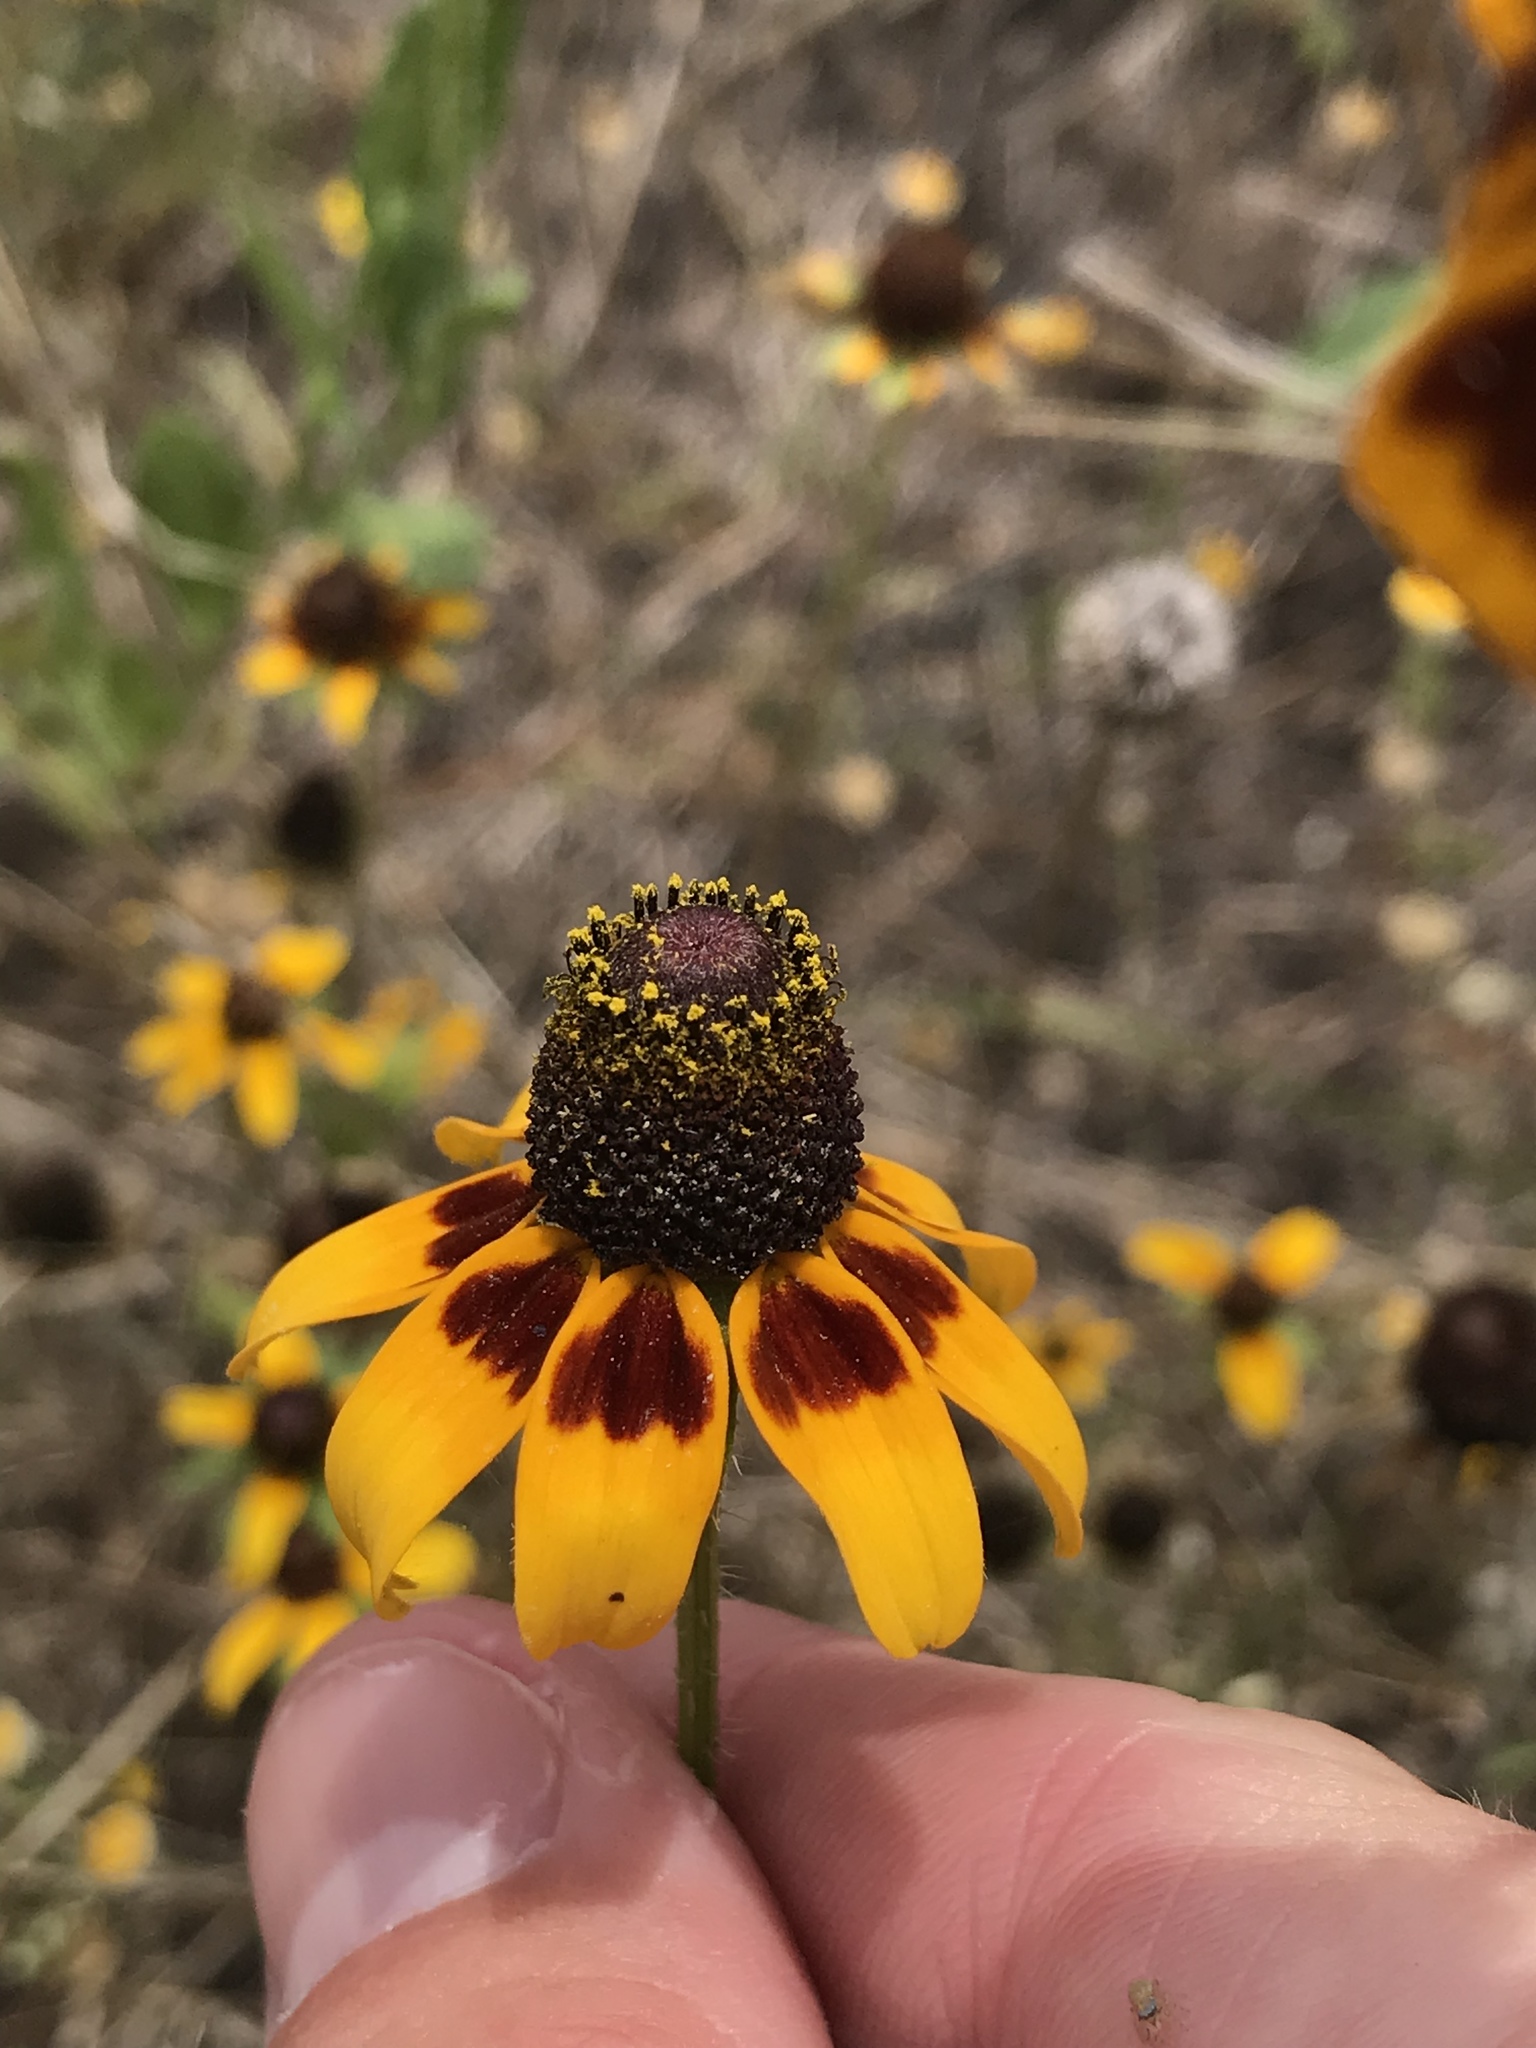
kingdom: Plantae
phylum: Tracheophyta
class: Magnoliopsida
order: Asterales
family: Asteraceae
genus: Rudbeckia
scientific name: Rudbeckia hirta
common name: Black-eyed-susan
